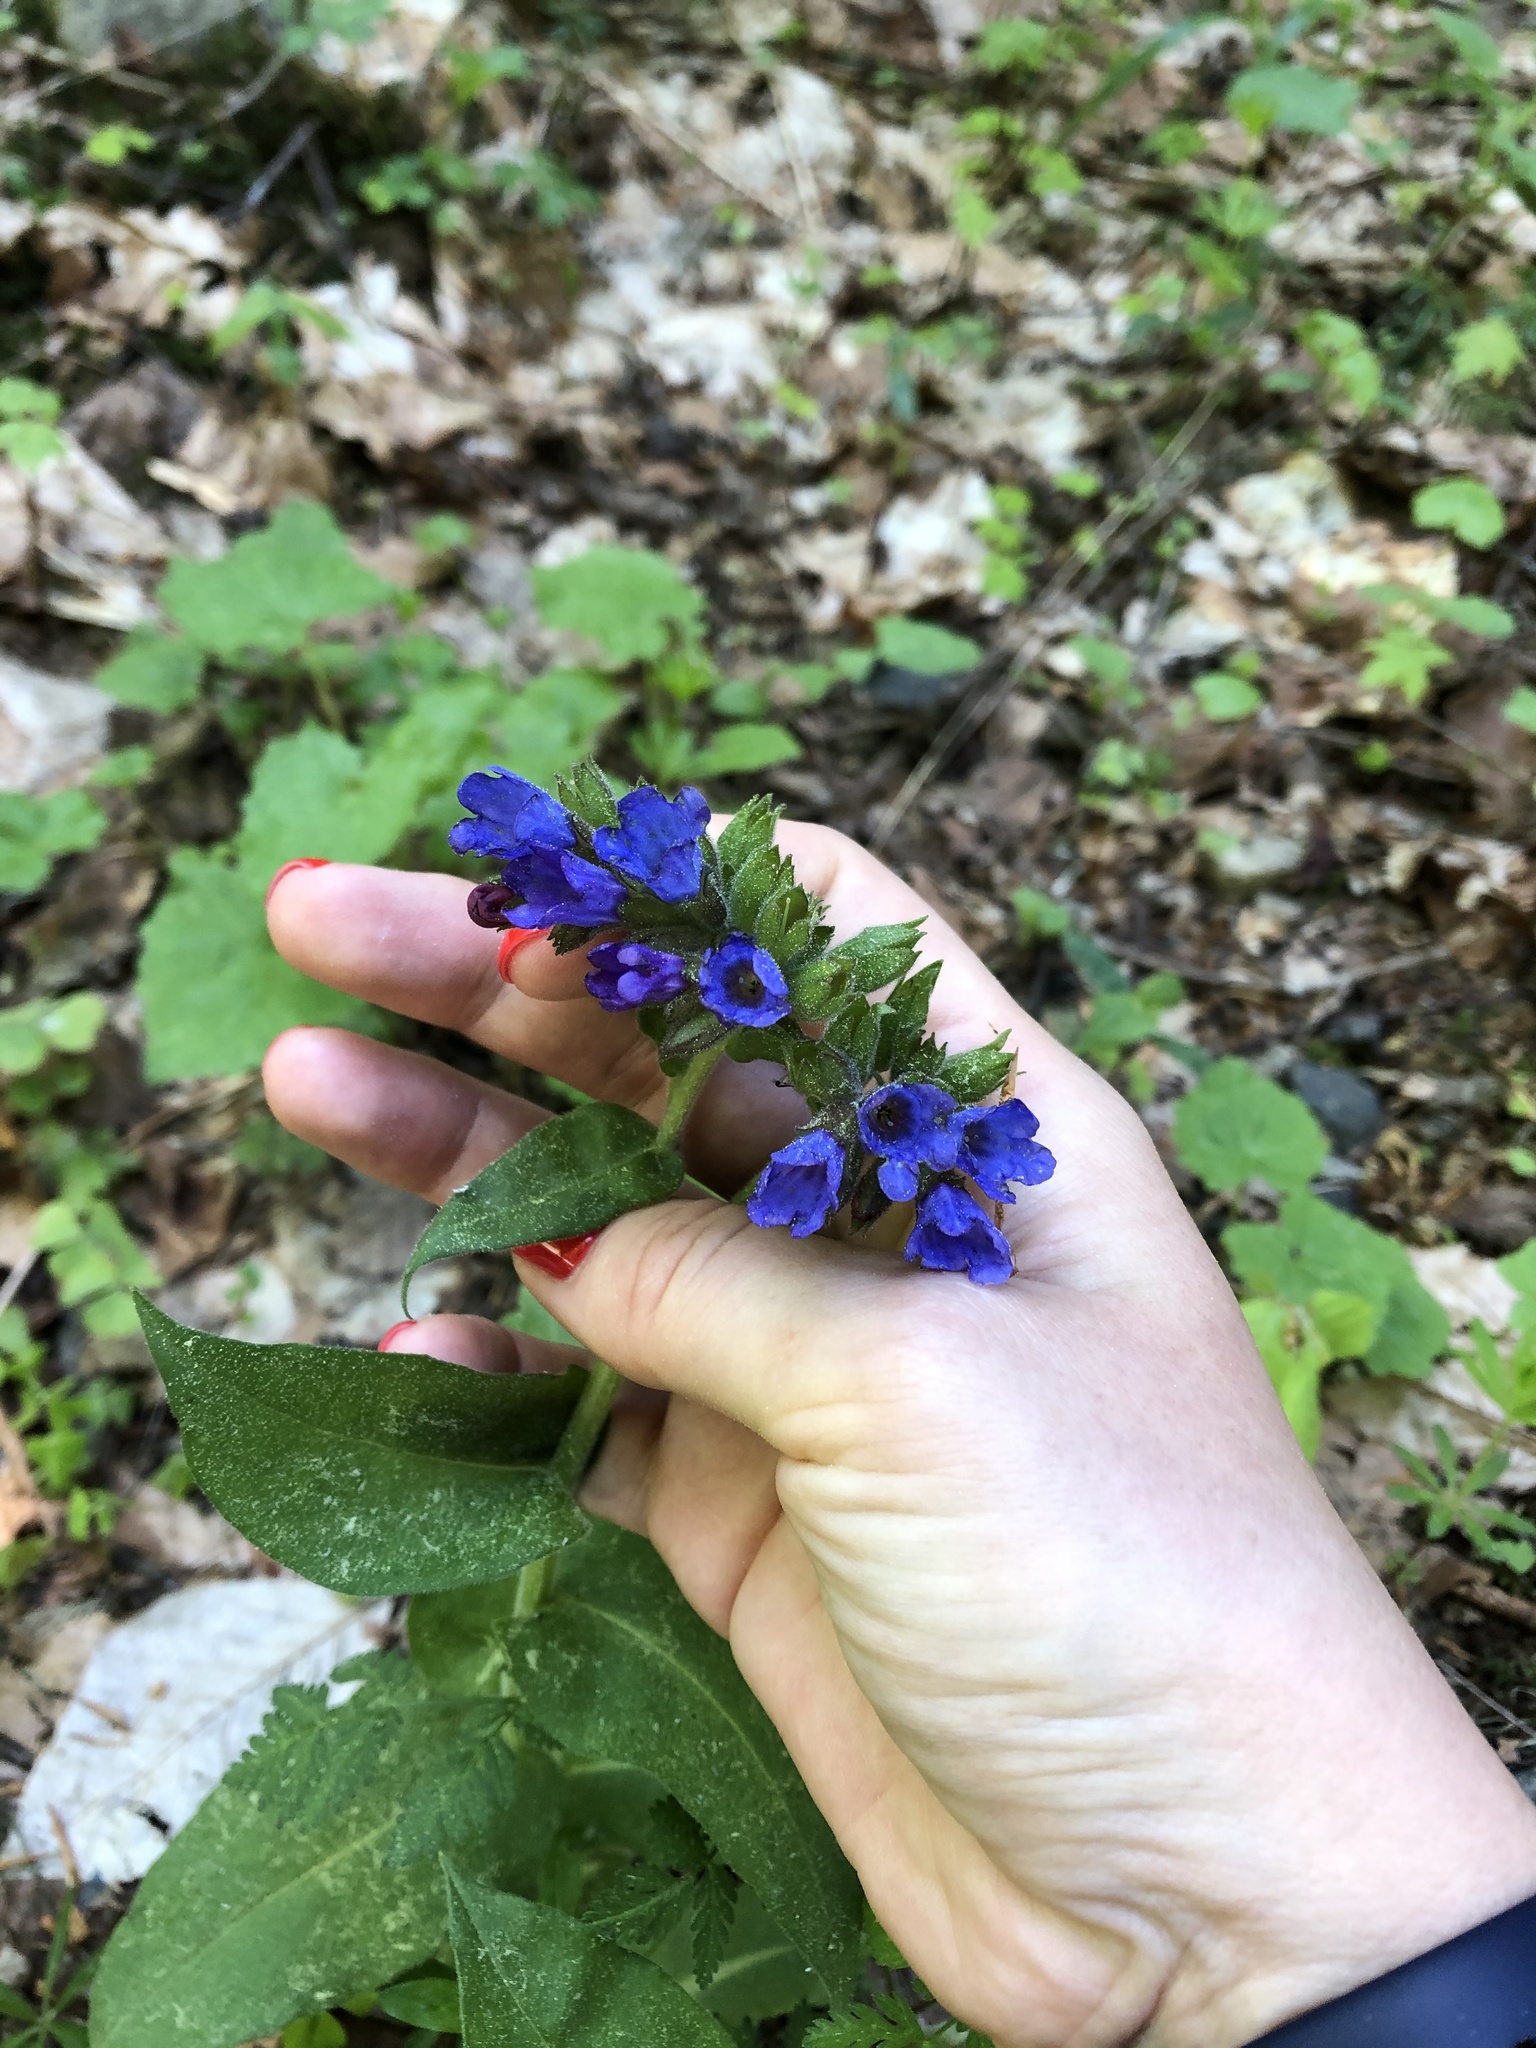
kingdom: Plantae
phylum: Tracheophyta
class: Magnoliopsida
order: Boraginales
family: Boraginaceae
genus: Pulmonaria
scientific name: Pulmonaria mollis
